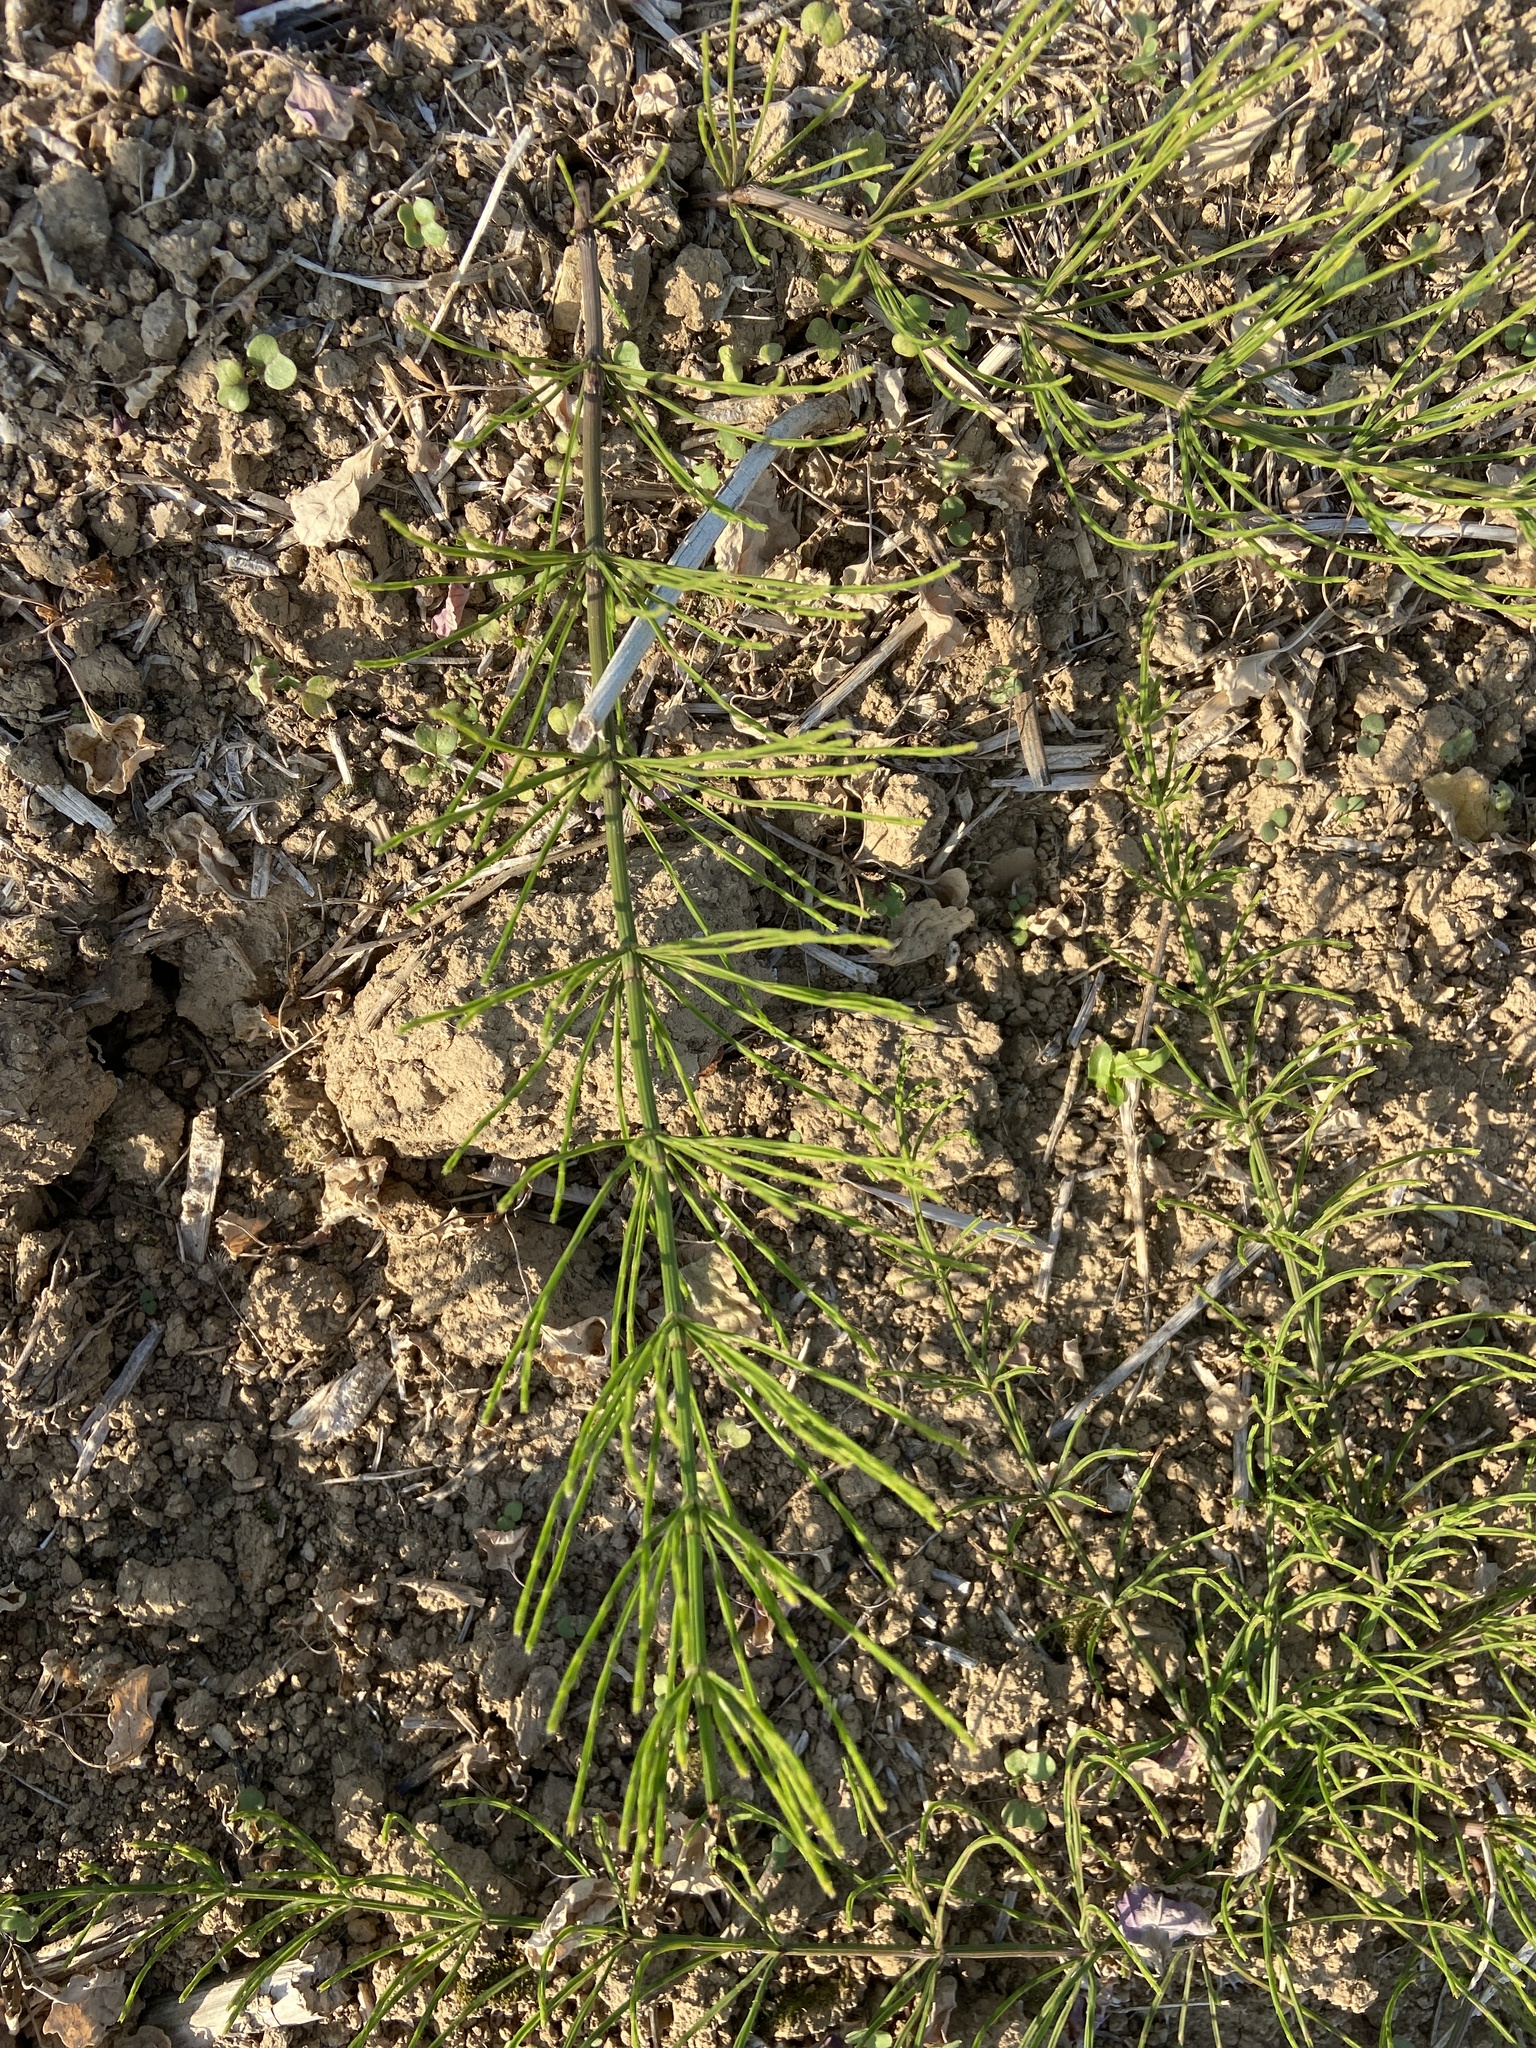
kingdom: Plantae
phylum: Tracheophyta
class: Polypodiopsida
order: Equisetales
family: Equisetaceae
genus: Equisetum
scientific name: Equisetum arvense
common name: Field horsetail
